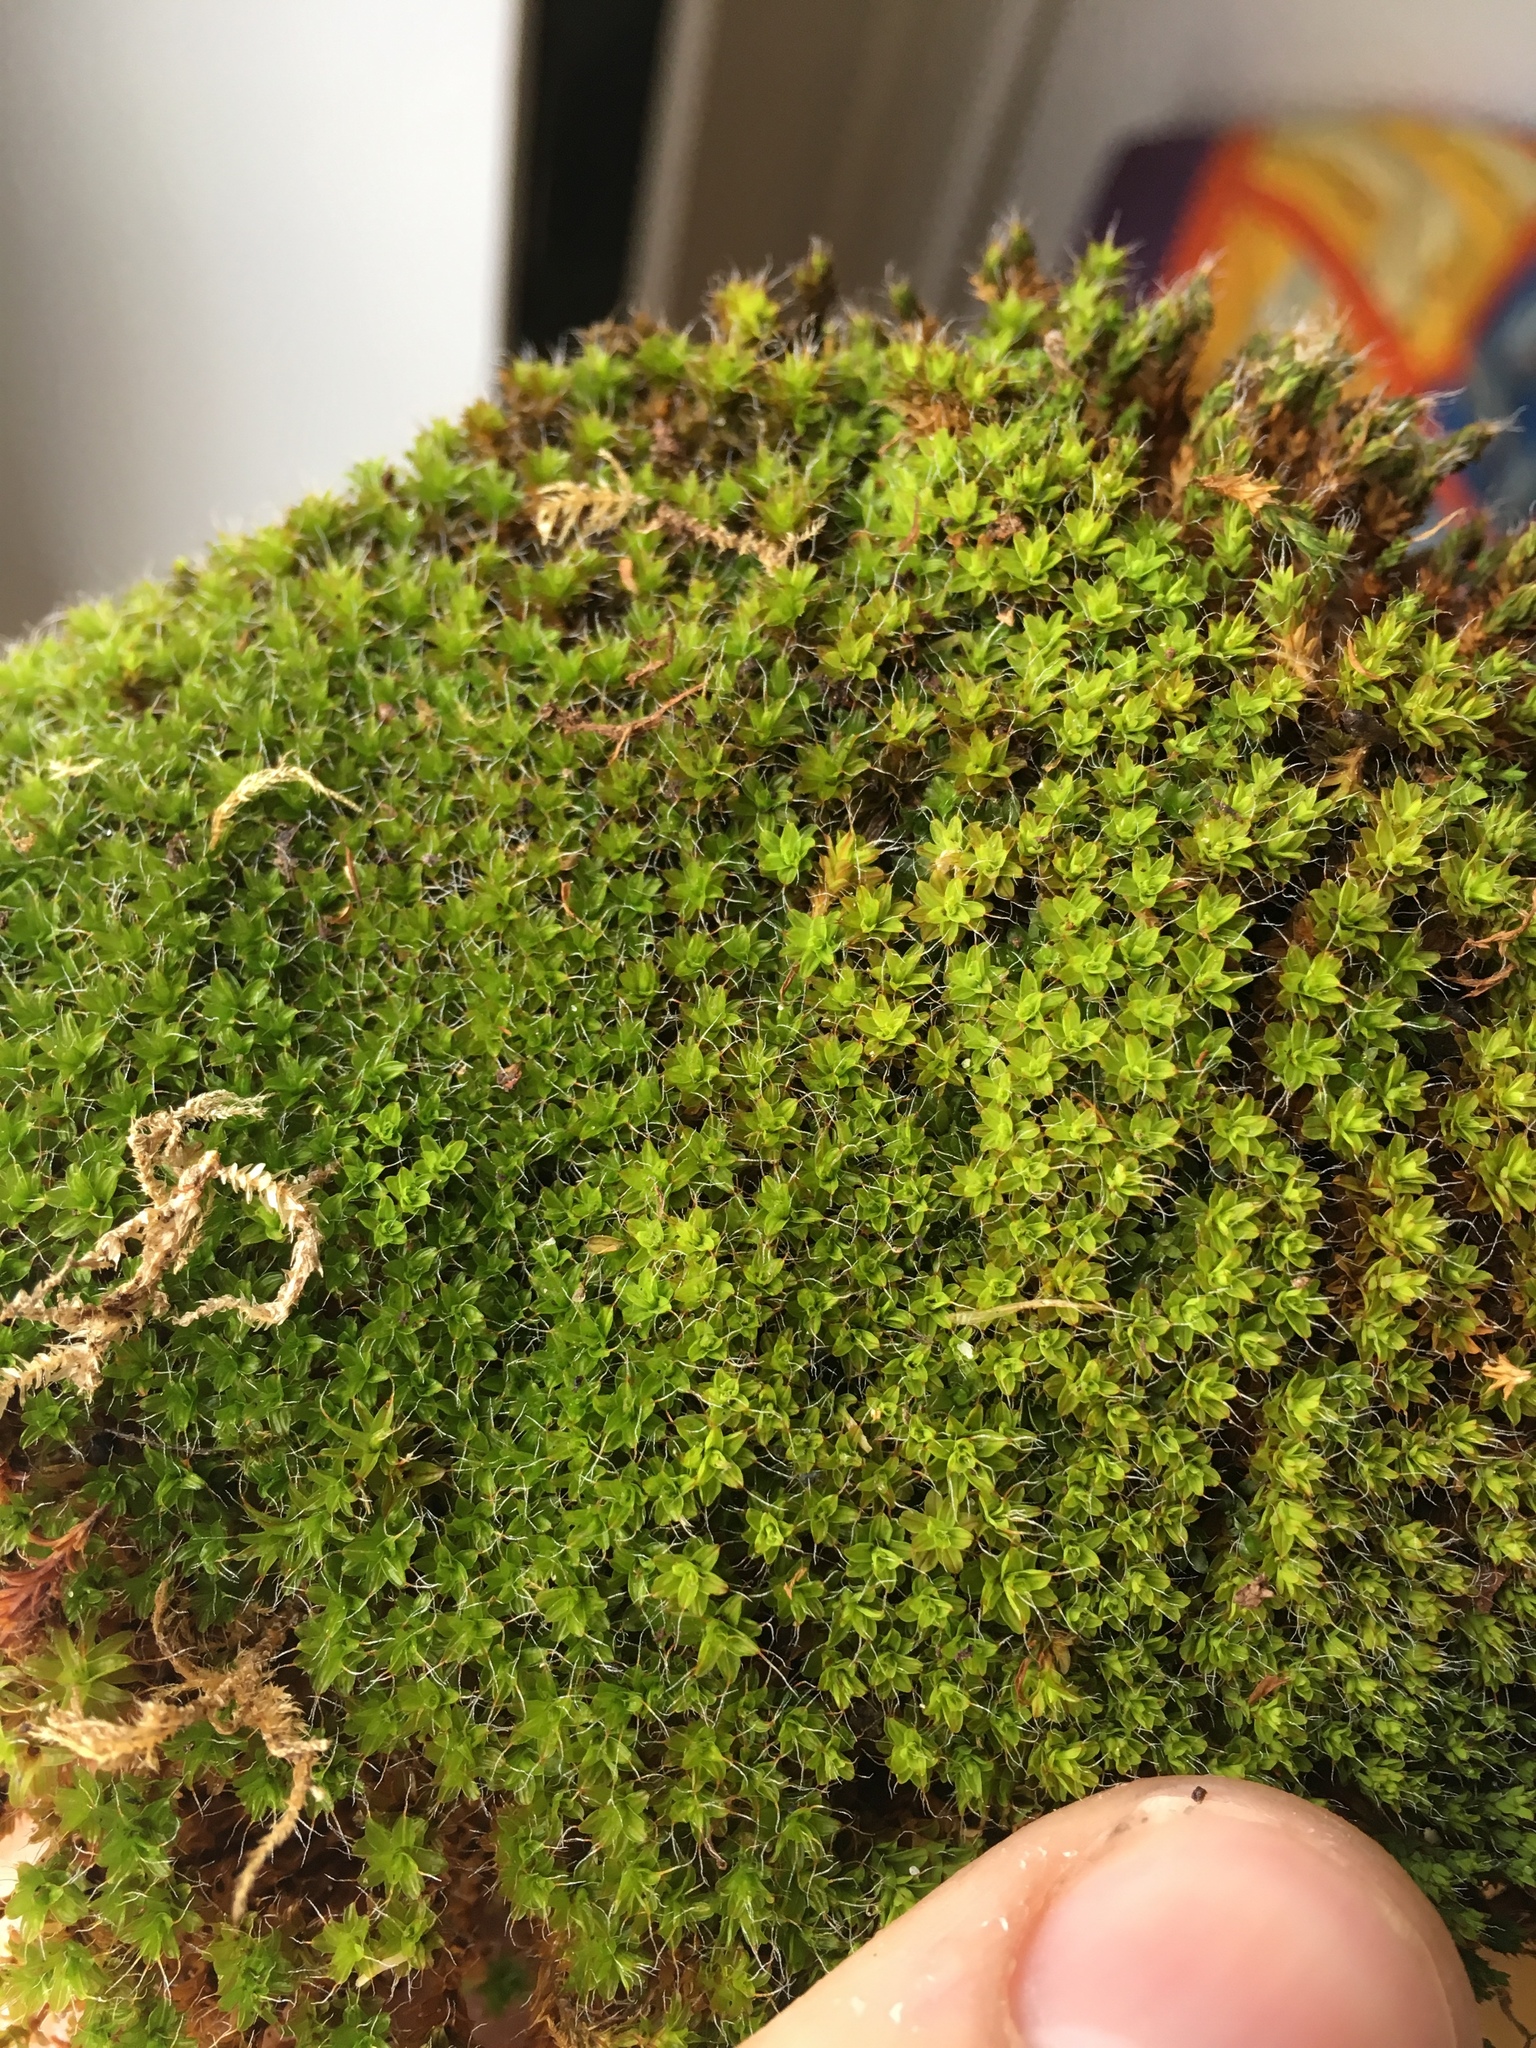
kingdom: Plantae
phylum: Bryophyta
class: Bryopsida
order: Pottiales
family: Pottiaceae
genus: Syntrichia
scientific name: Syntrichia ruralis
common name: Sidewalk screw moss
